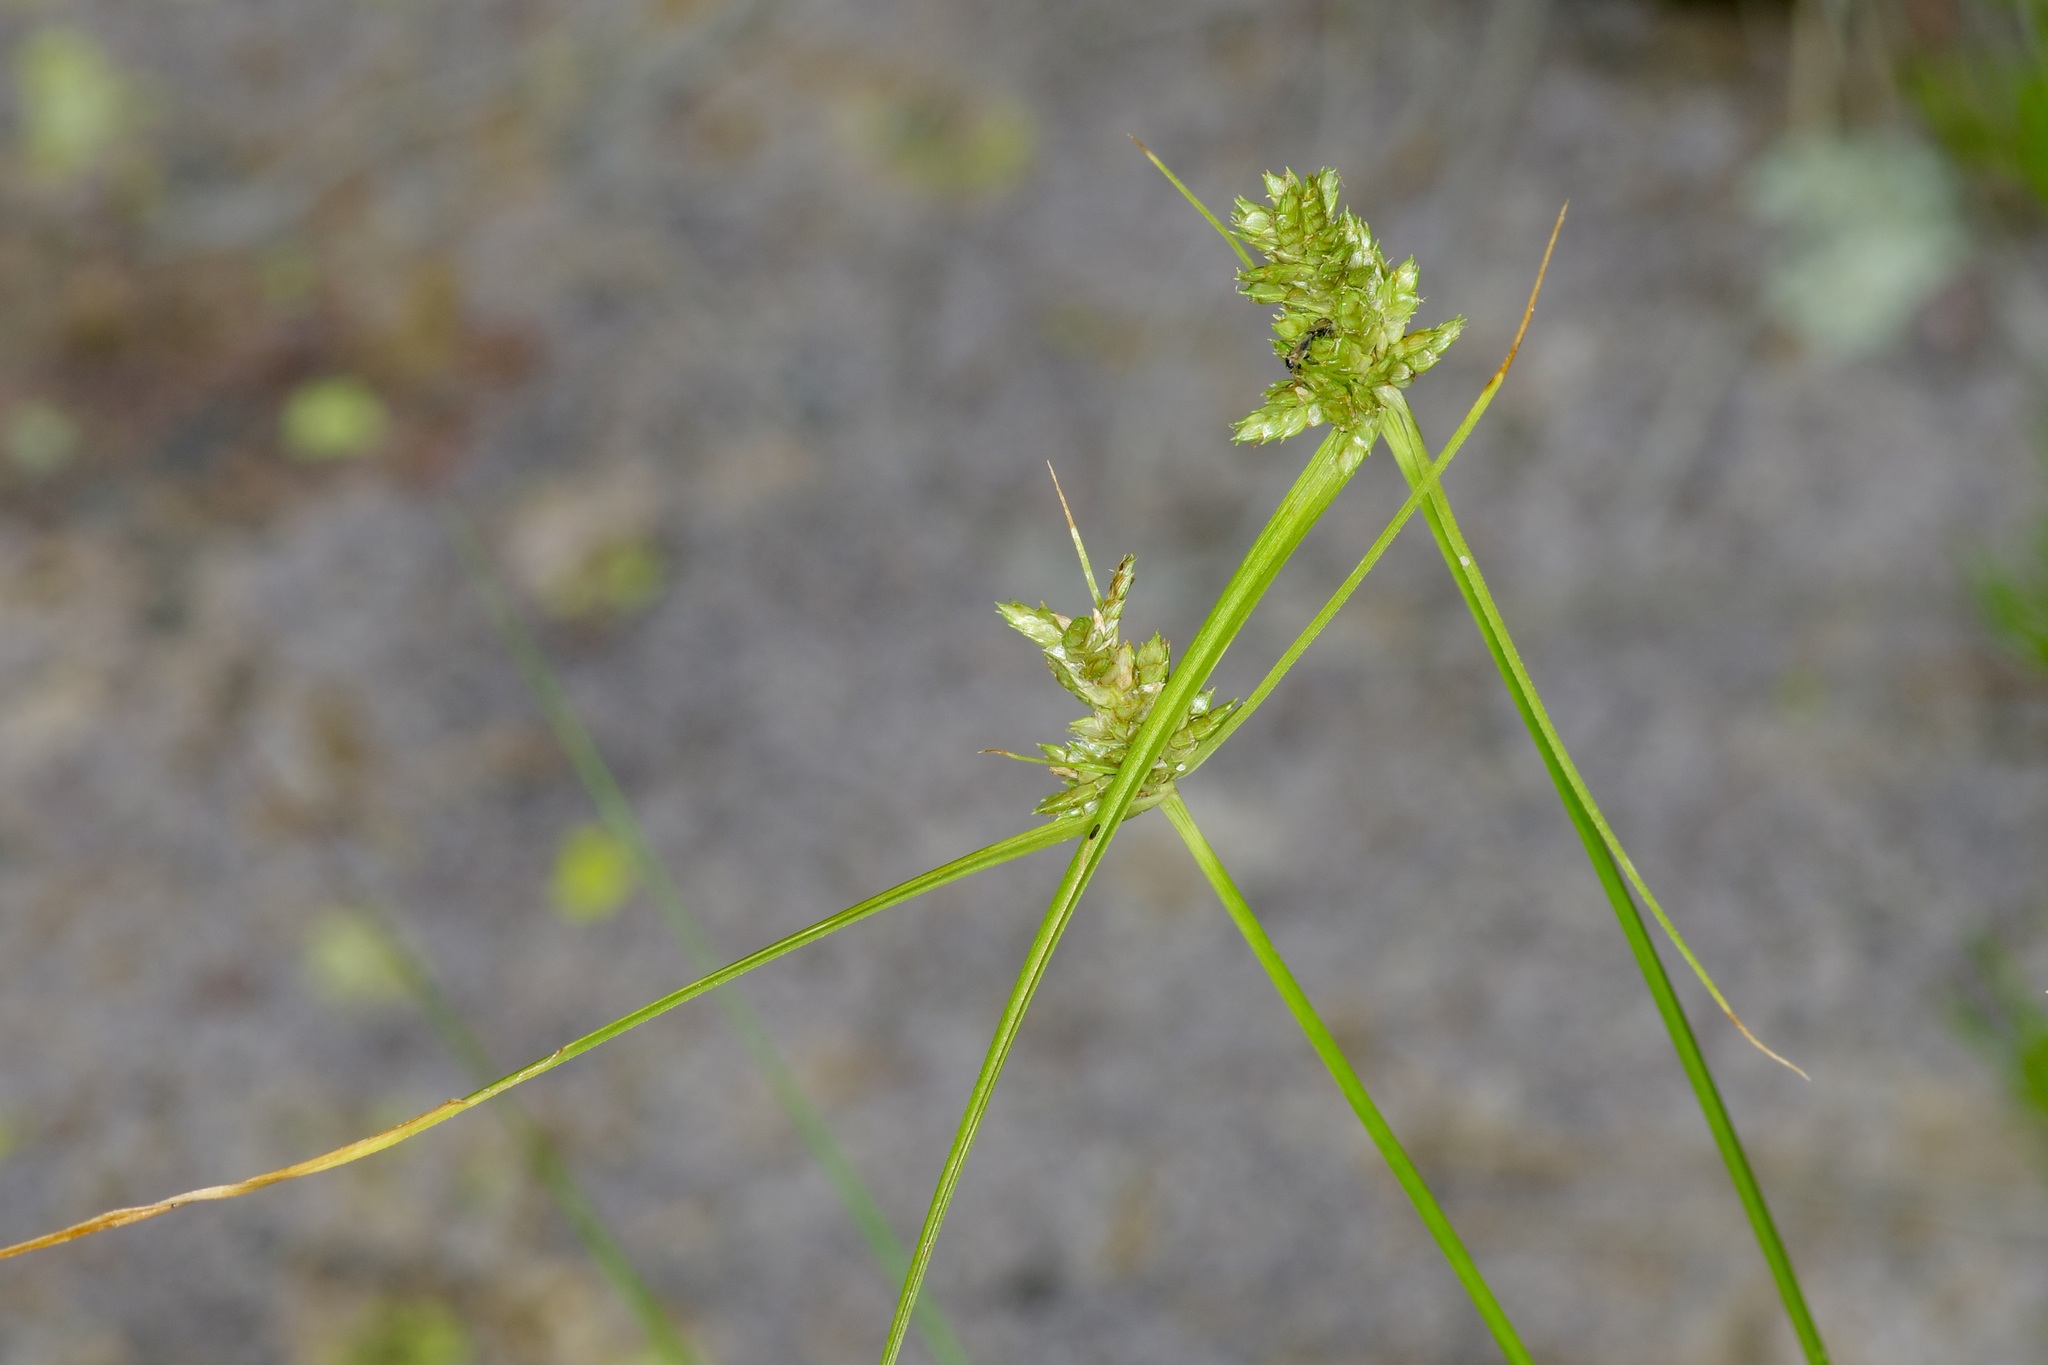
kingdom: Plantae
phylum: Tracheophyta
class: Liliopsida
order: Poales
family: Cyperaceae
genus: Cyperus
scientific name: Cyperus fendlerianus
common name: Fendler flat sedge
